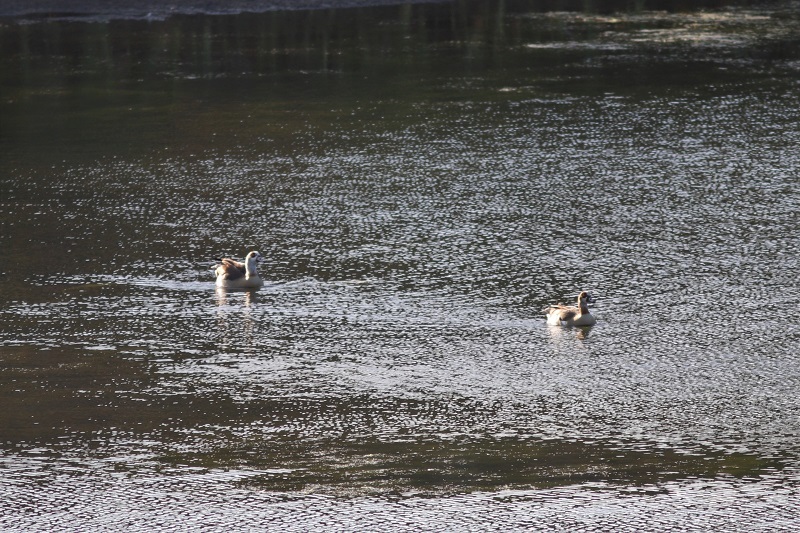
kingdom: Animalia
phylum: Chordata
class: Aves
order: Anseriformes
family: Anatidae
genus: Alopochen
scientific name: Alopochen aegyptiaca
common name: Egyptian goose
